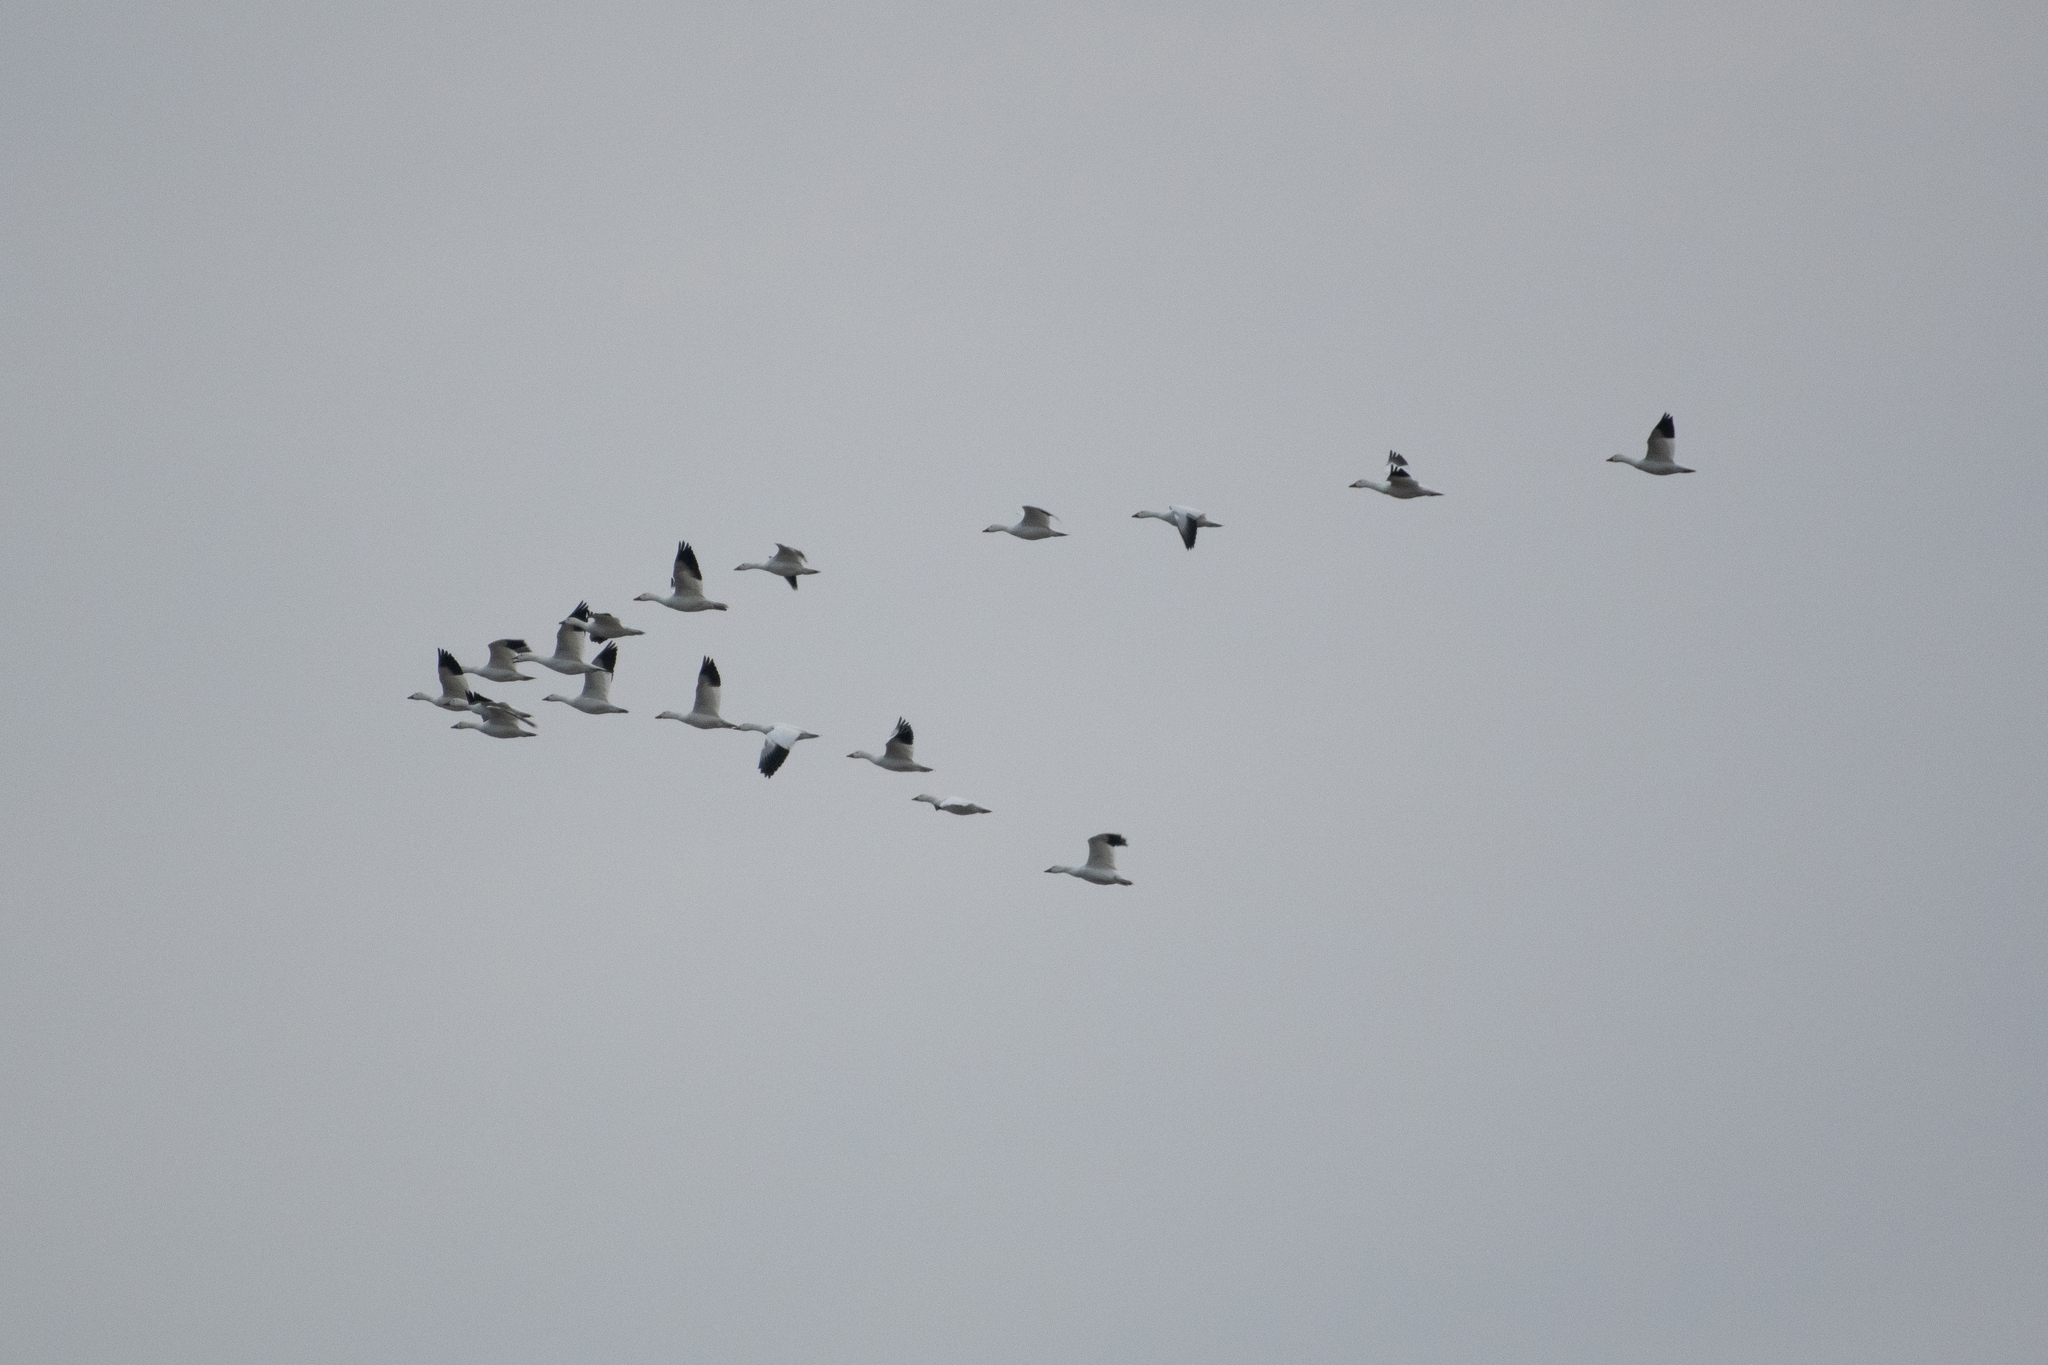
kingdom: Animalia
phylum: Chordata
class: Aves
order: Anseriformes
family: Anatidae
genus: Anser
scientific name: Anser caerulescens
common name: Snow goose
